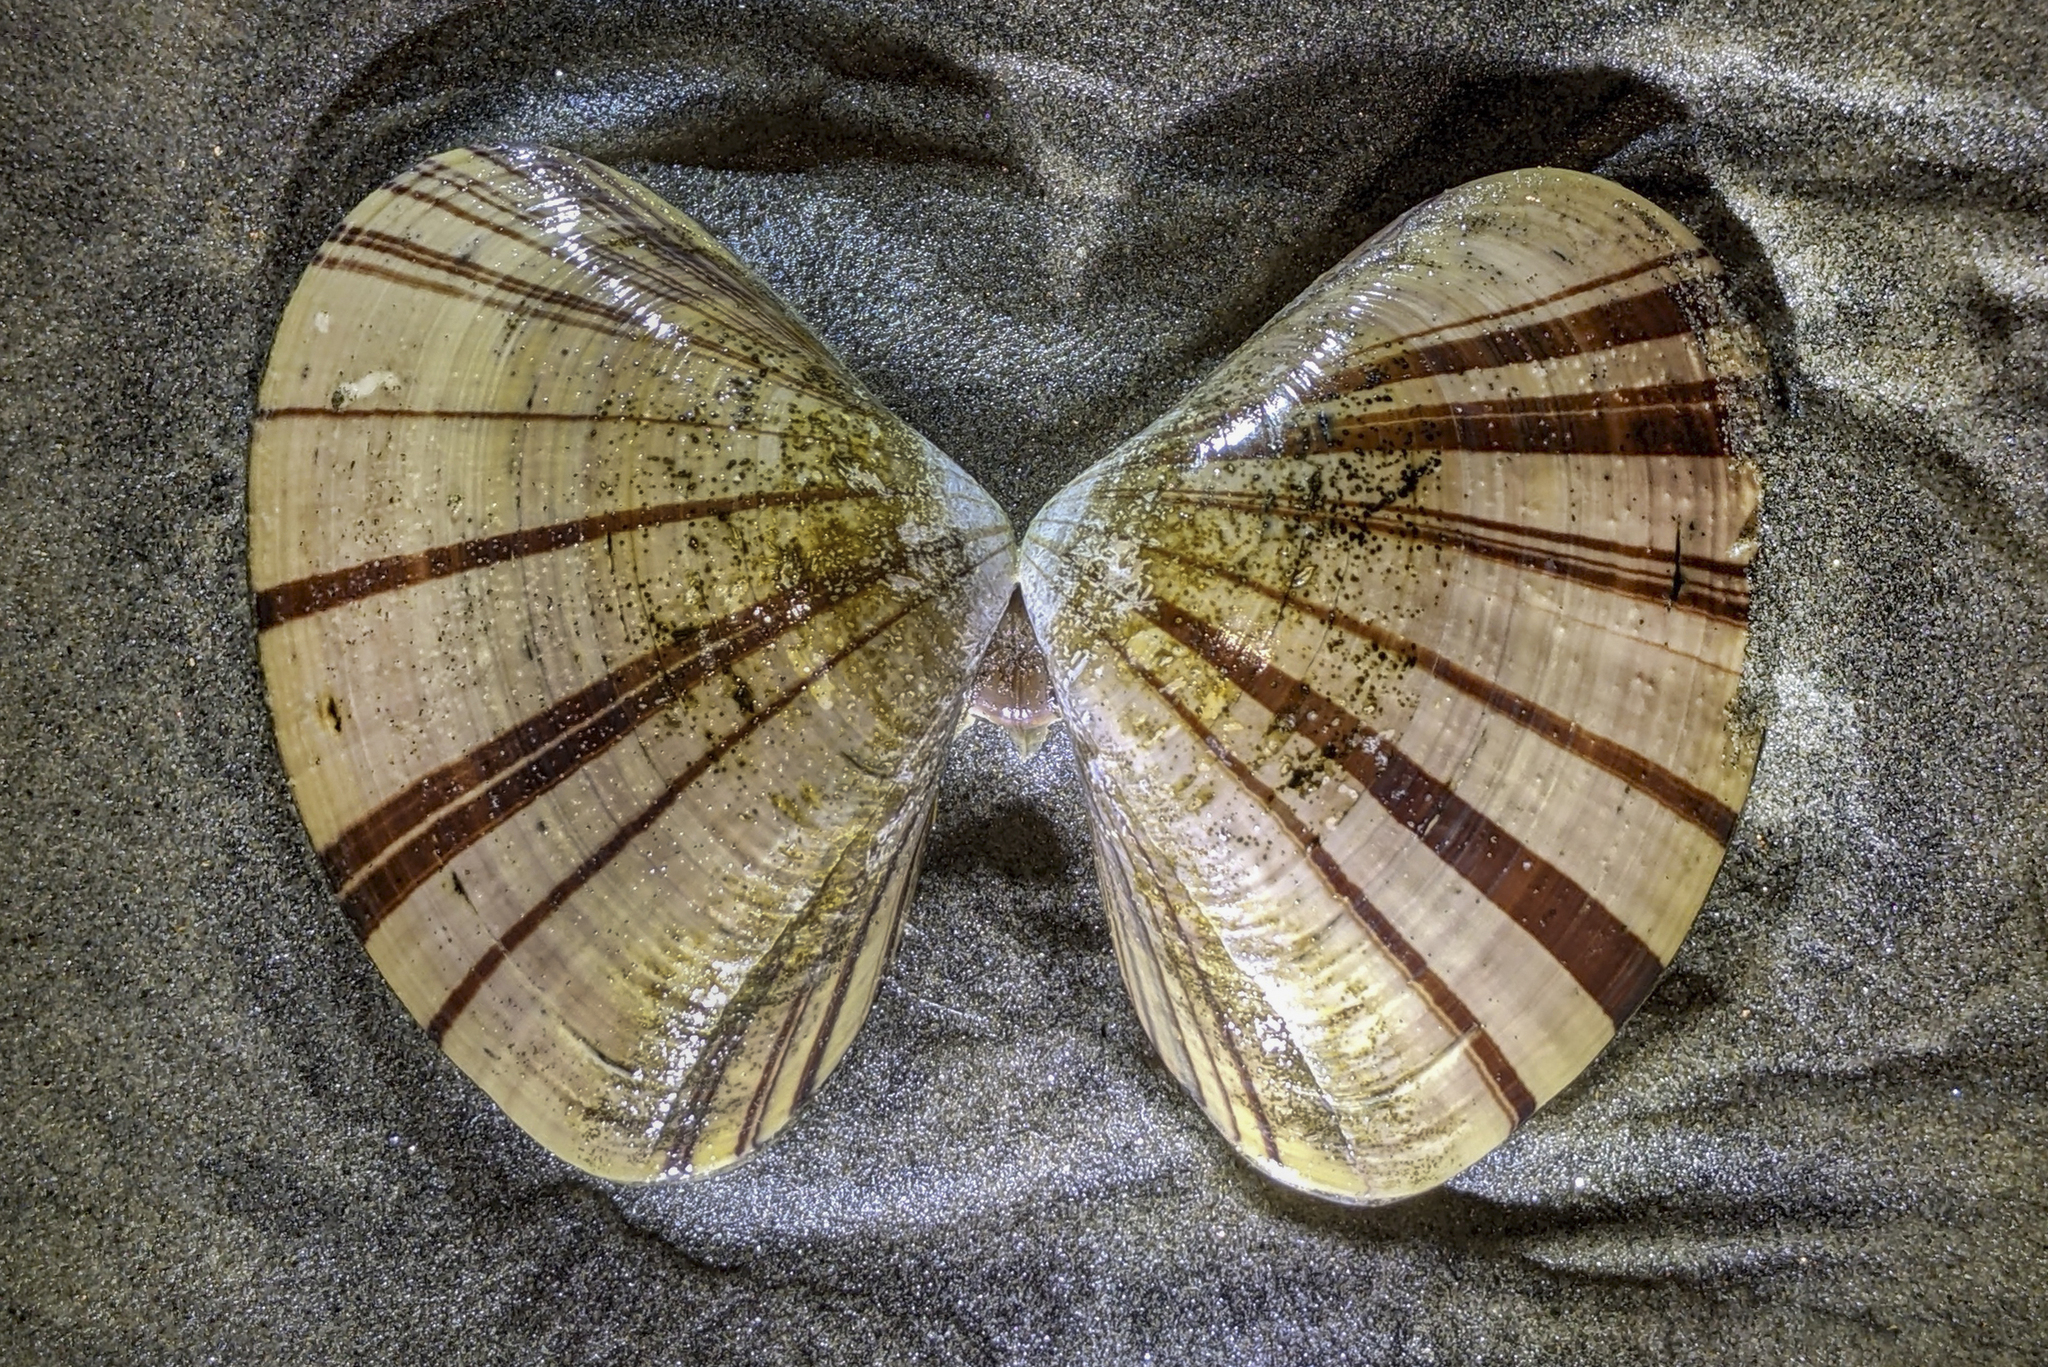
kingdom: Animalia
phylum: Mollusca
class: Bivalvia
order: Venerida
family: Veneridae
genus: Tivela
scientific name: Tivela stultorum
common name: Pismo clam
